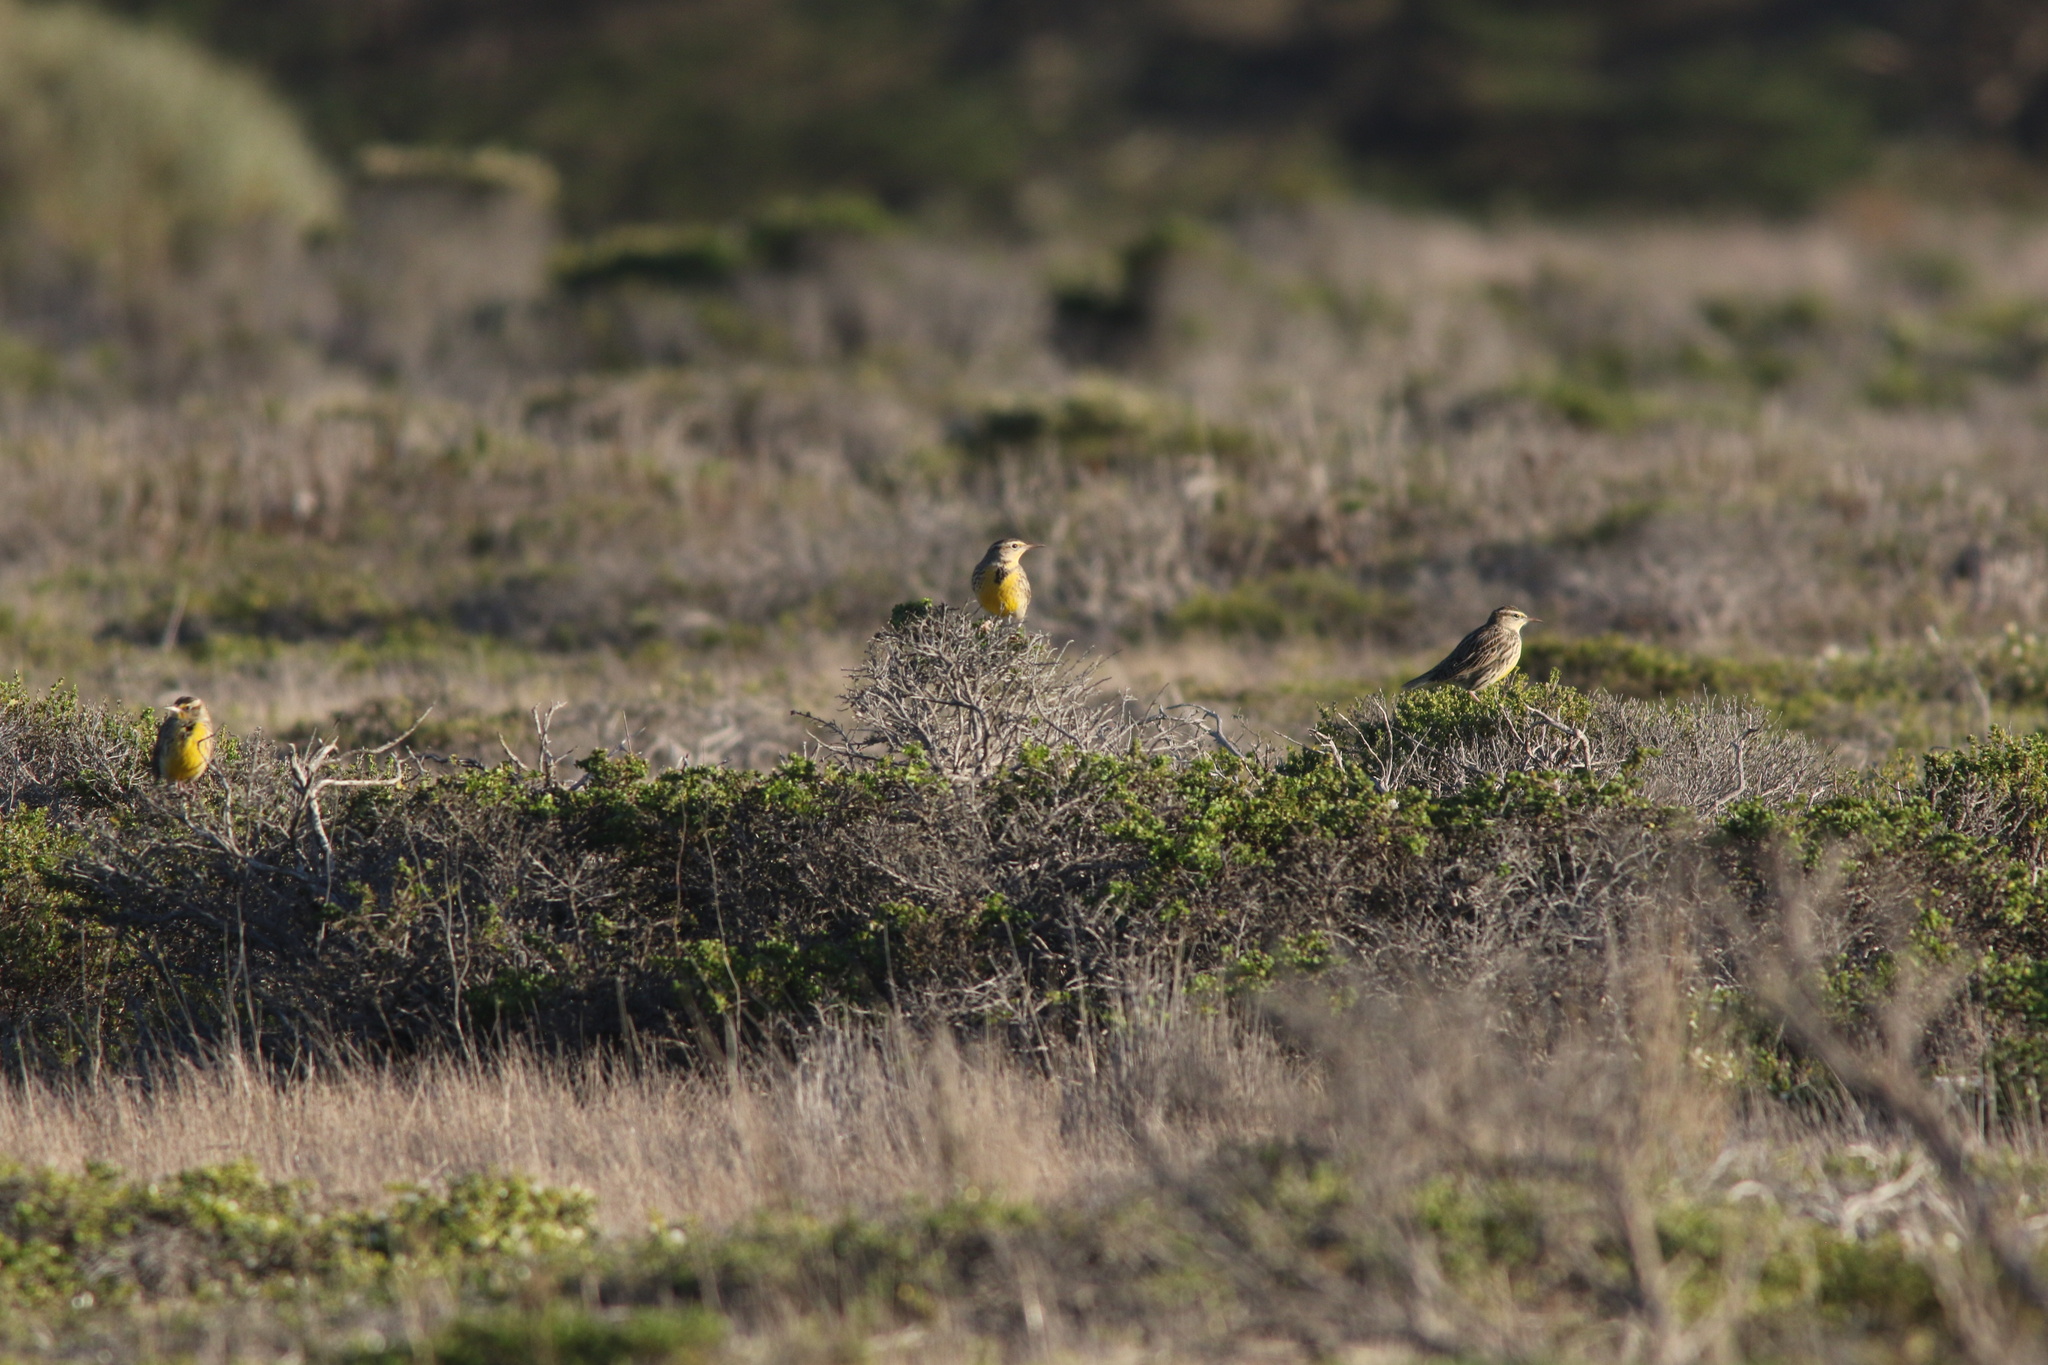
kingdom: Animalia
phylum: Chordata
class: Aves
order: Passeriformes
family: Icteridae
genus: Sturnella
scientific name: Sturnella neglecta
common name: Western meadowlark
